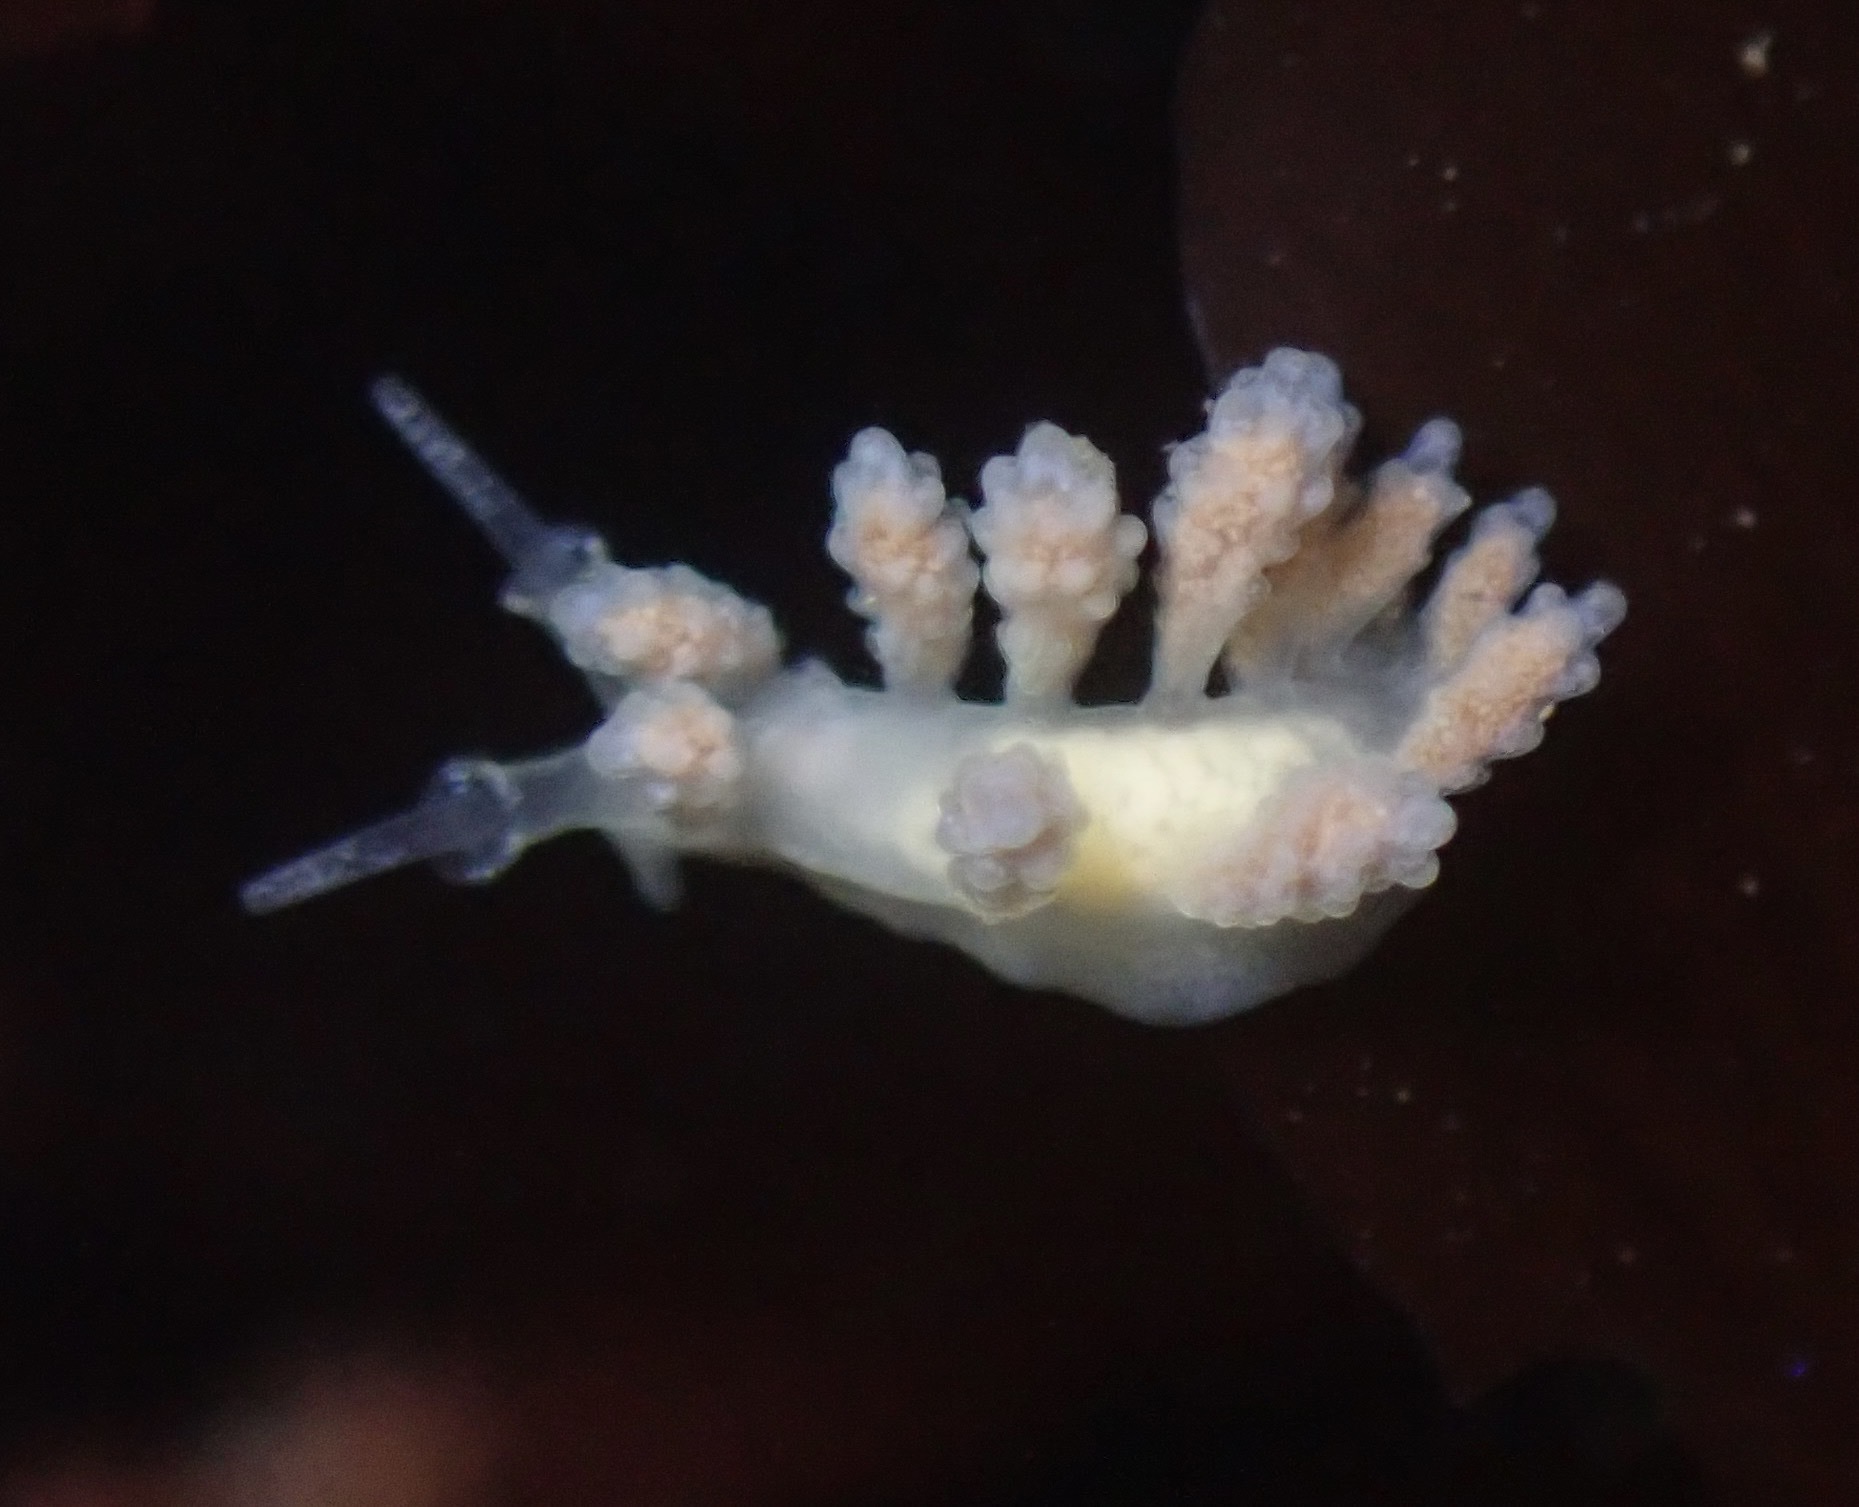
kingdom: Animalia
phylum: Mollusca
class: Gastropoda
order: Nudibranchia
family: Dotidae
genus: Doto
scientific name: Doto amyra
